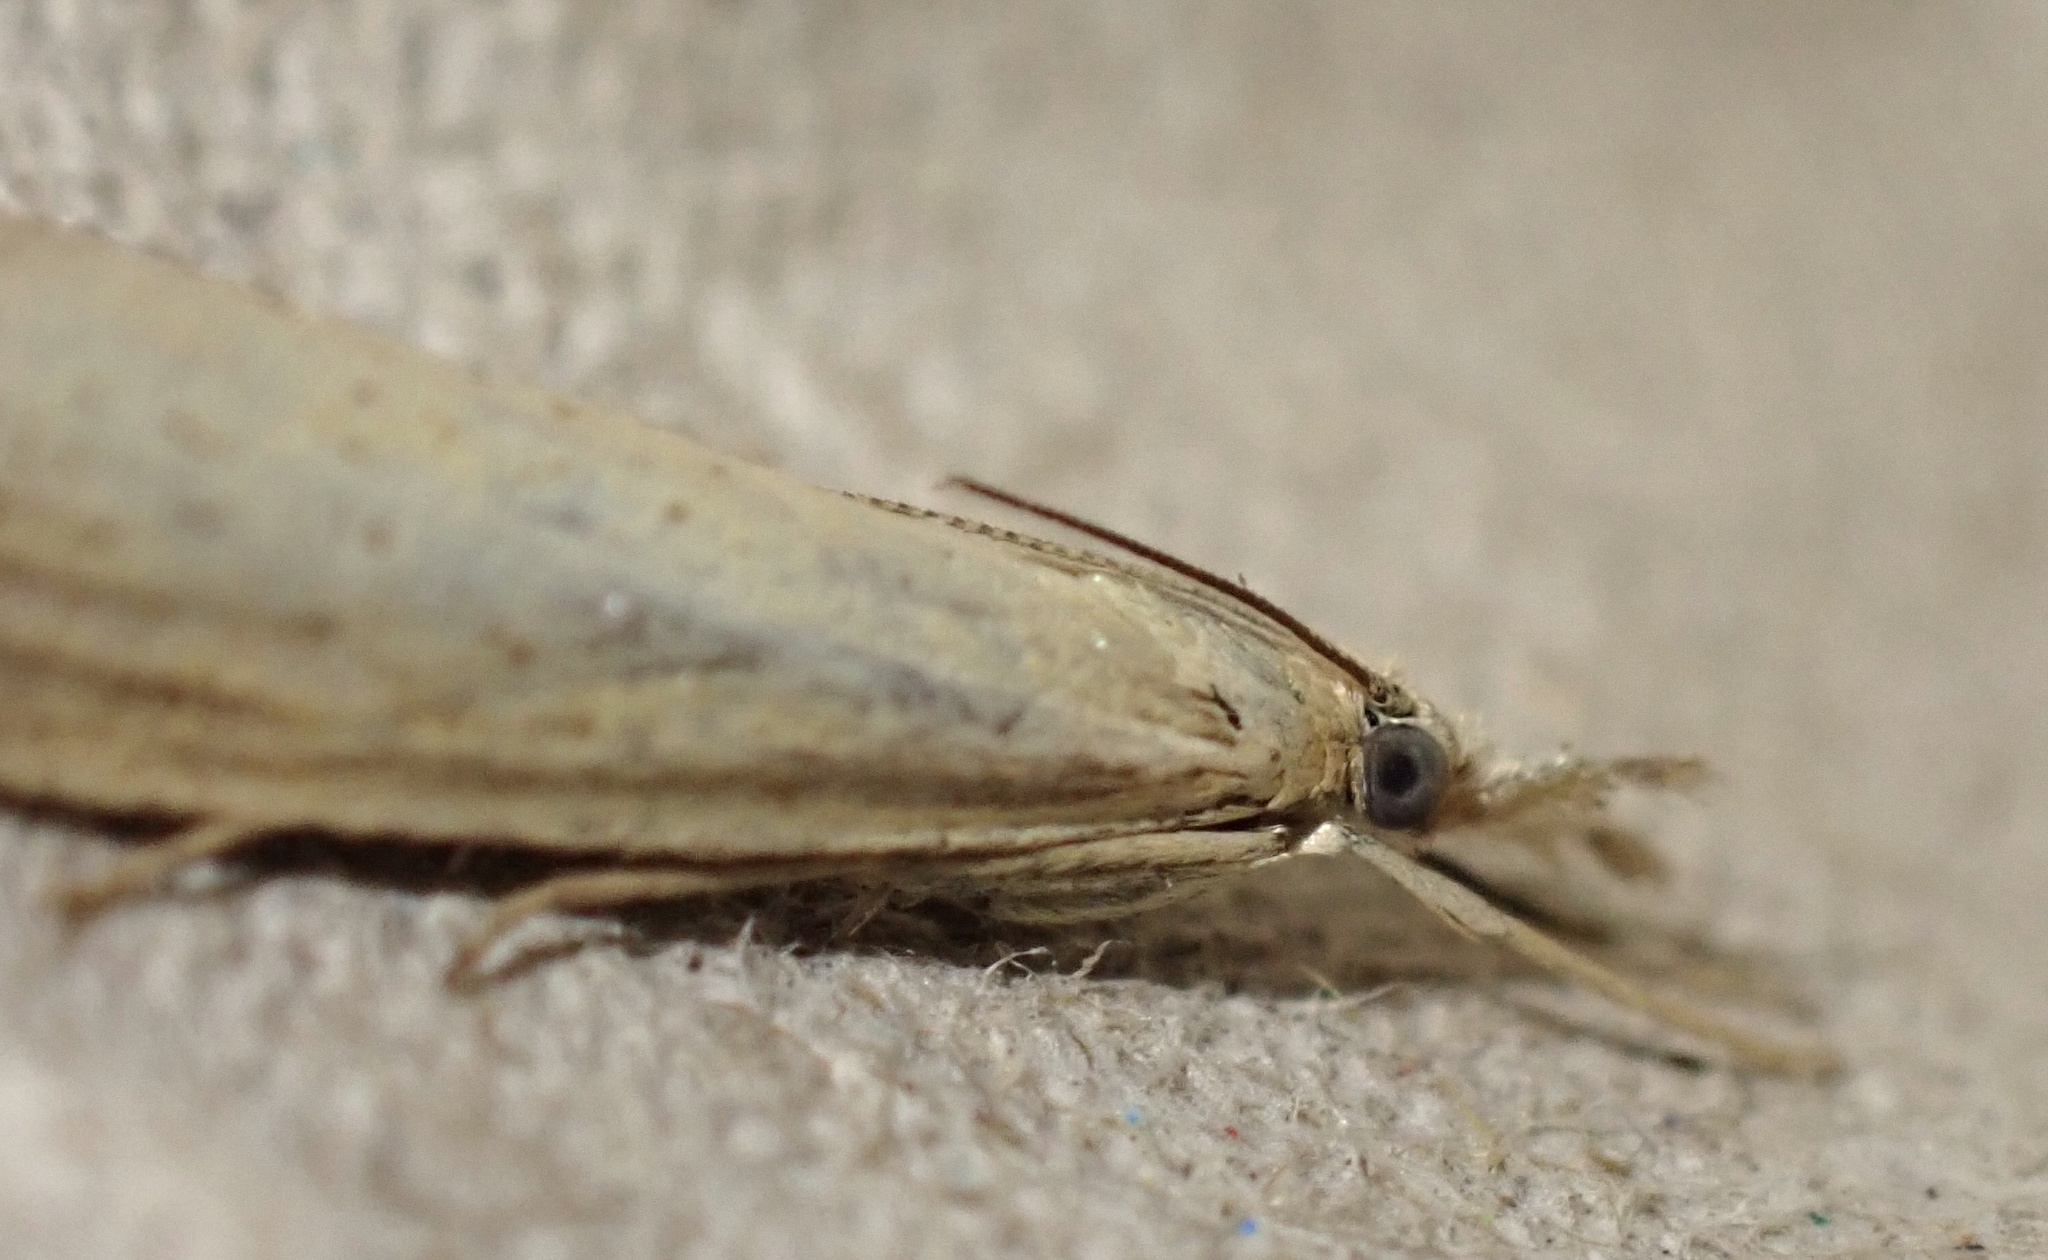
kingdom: Animalia
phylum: Arthropoda
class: Insecta
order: Lepidoptera
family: Crambidae
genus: Agriphila
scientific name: Agriphila straminella
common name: Straw grass-veneer
